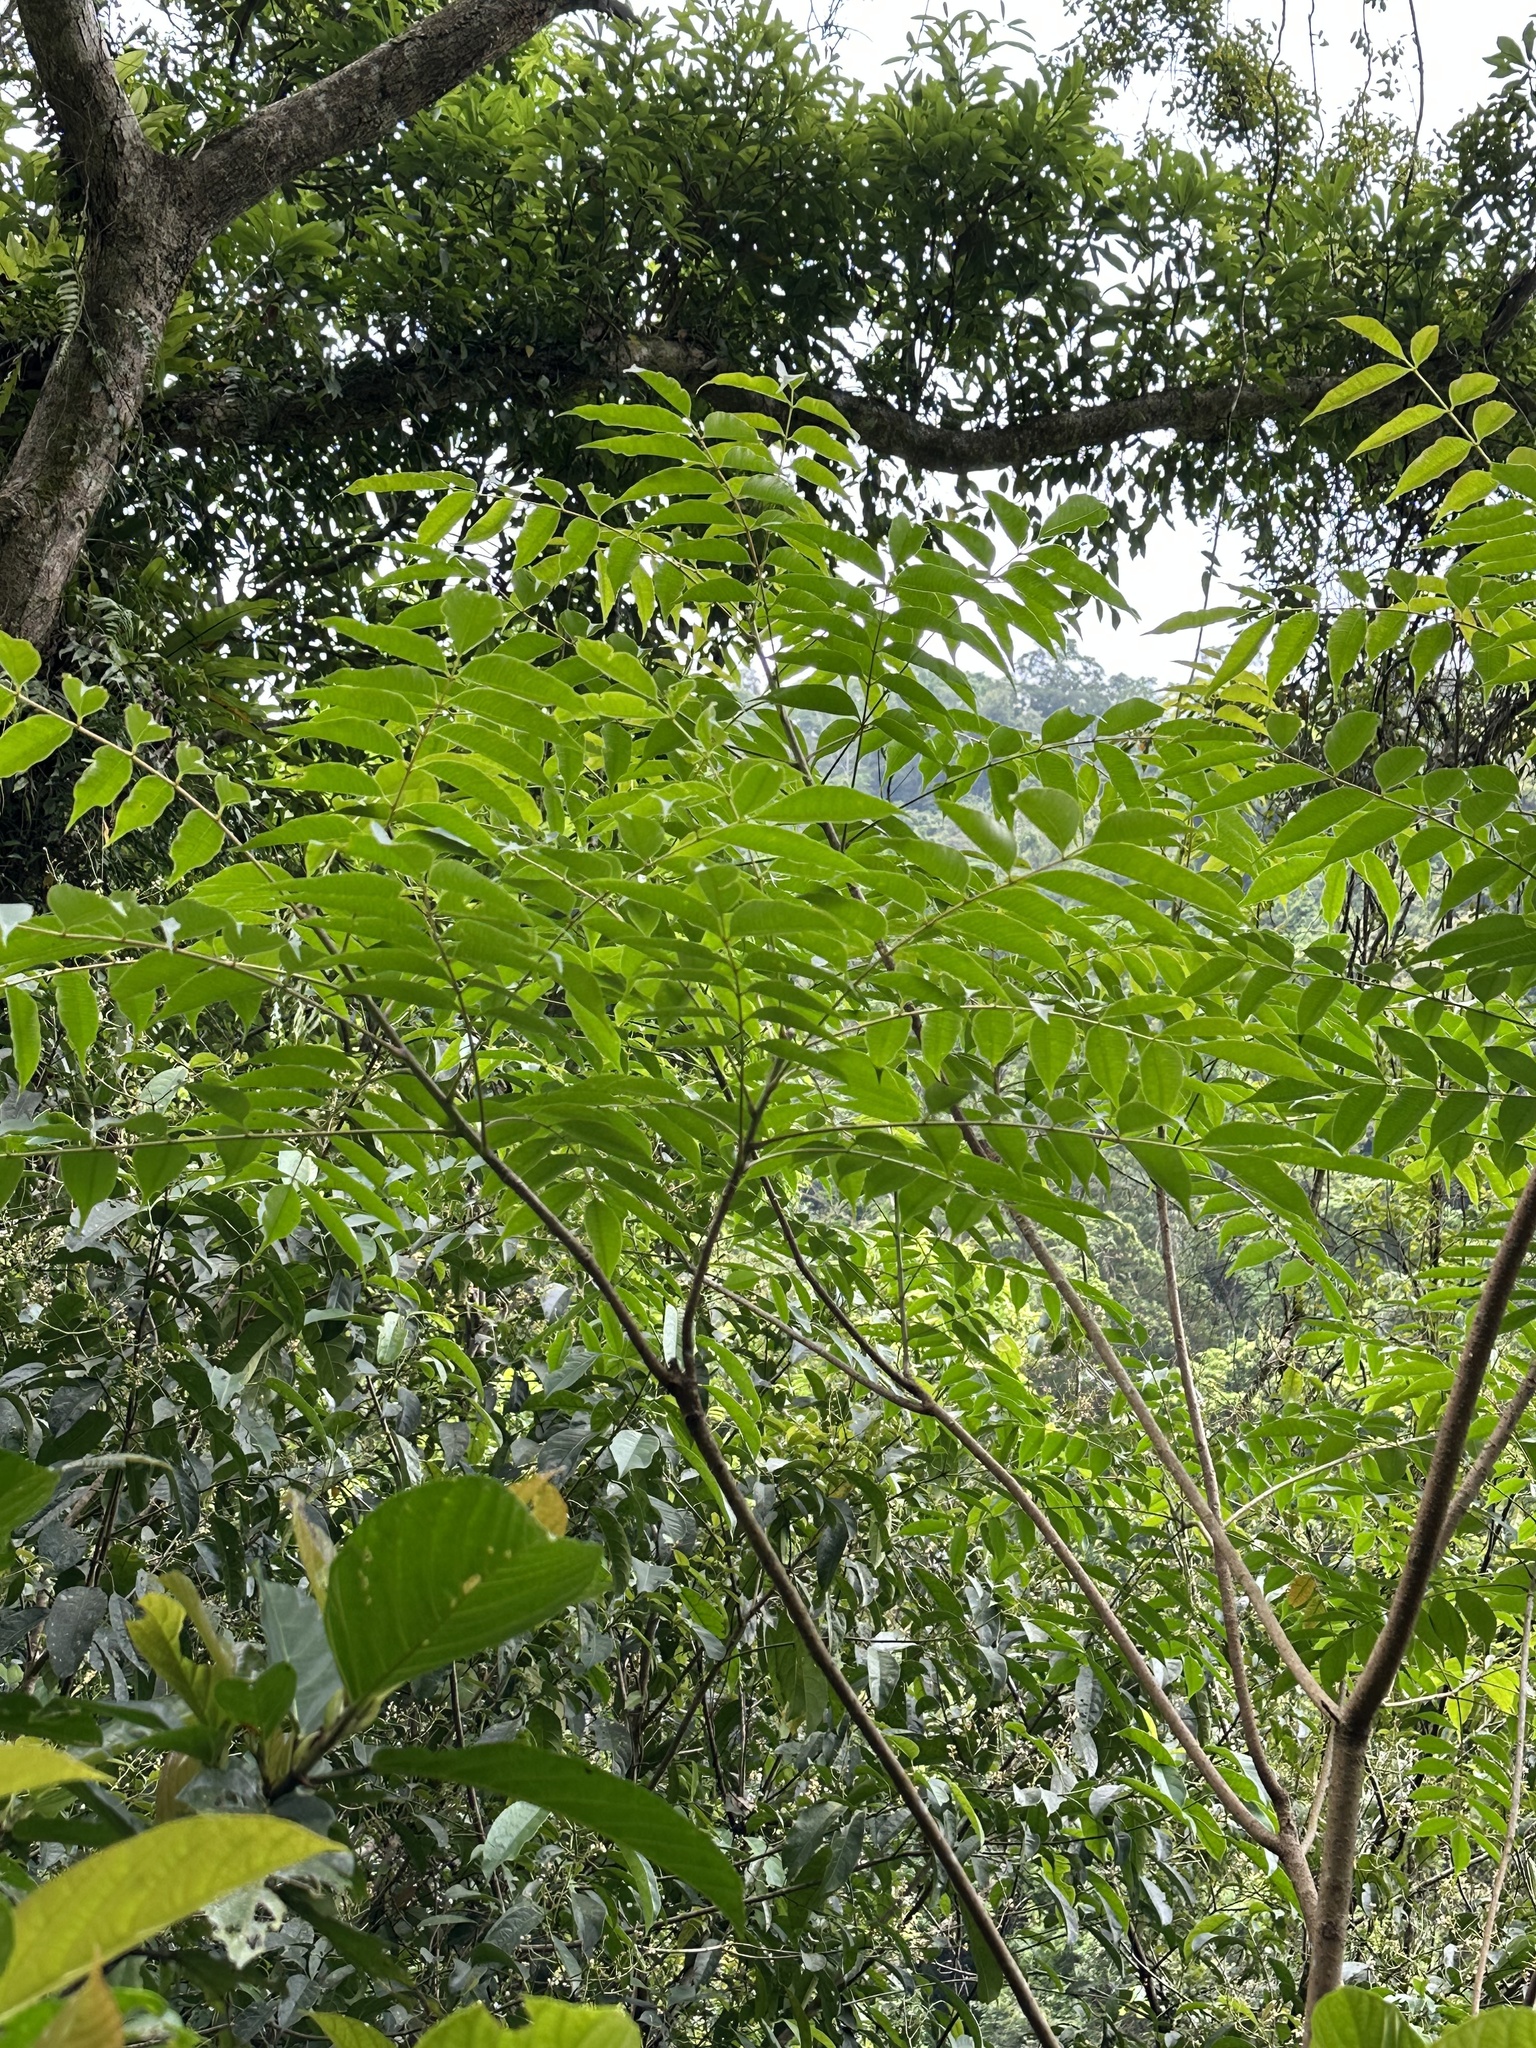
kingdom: Plantae
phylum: Tracheophyta
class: Magnoliopsida
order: Sapindales
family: Anacardiaceae
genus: Toxicodendron
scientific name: Toxicodendron succedaneum
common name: Wax tree
